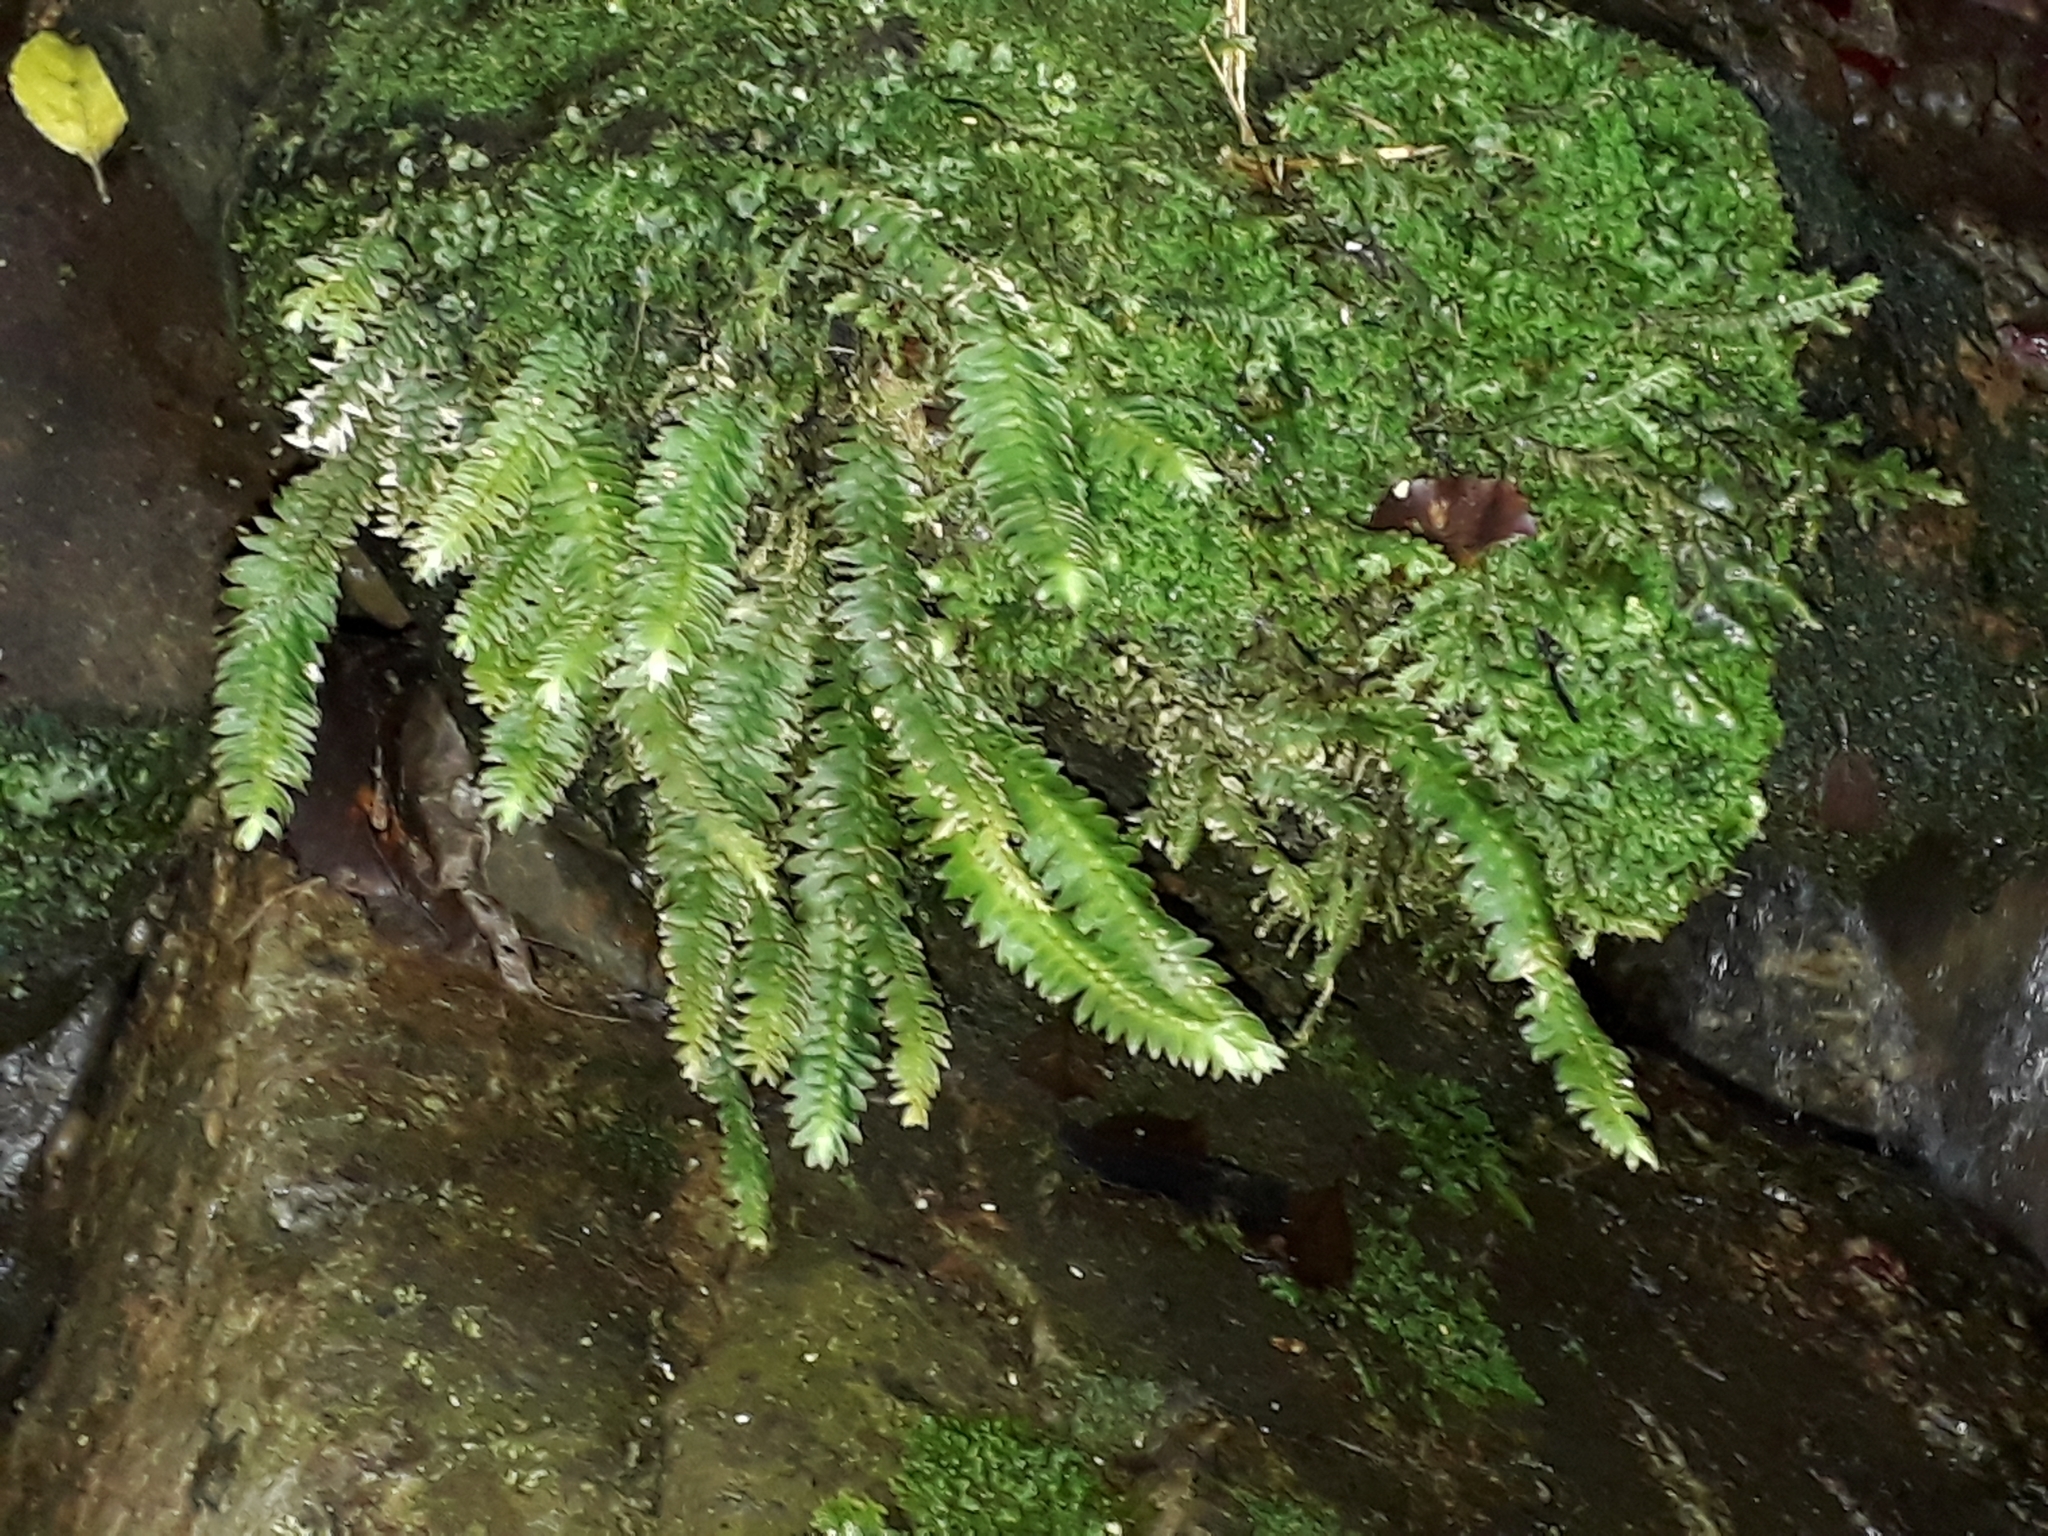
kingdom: Plantae
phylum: Bryophyta
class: Bryopsida
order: Hypopterygiales
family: Hypopterygiaceae
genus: Cyathophorum
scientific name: Cyathophorum bulbosum
